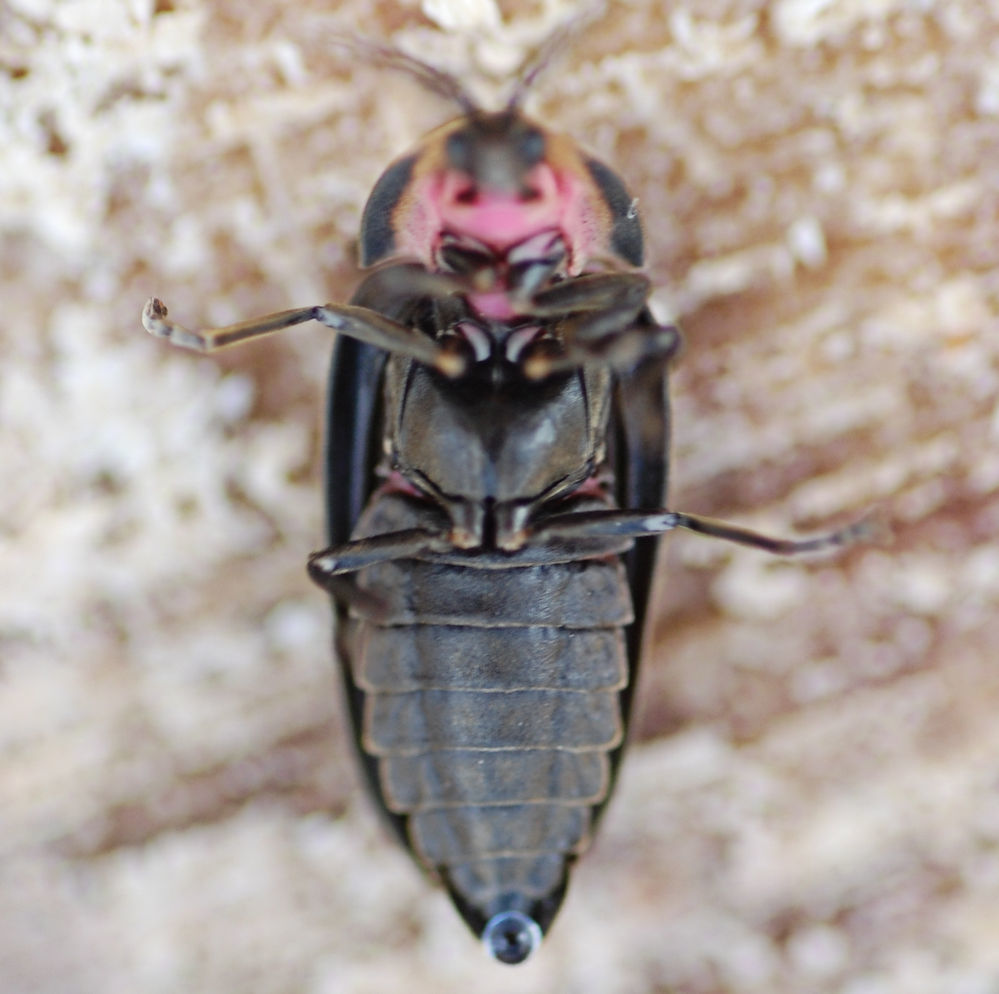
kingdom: Animalia
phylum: Arthropoda
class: Insecta
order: Coleoptera
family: Lampyridae
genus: Photinus
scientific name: Photinus corrusca
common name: Winter firefly
